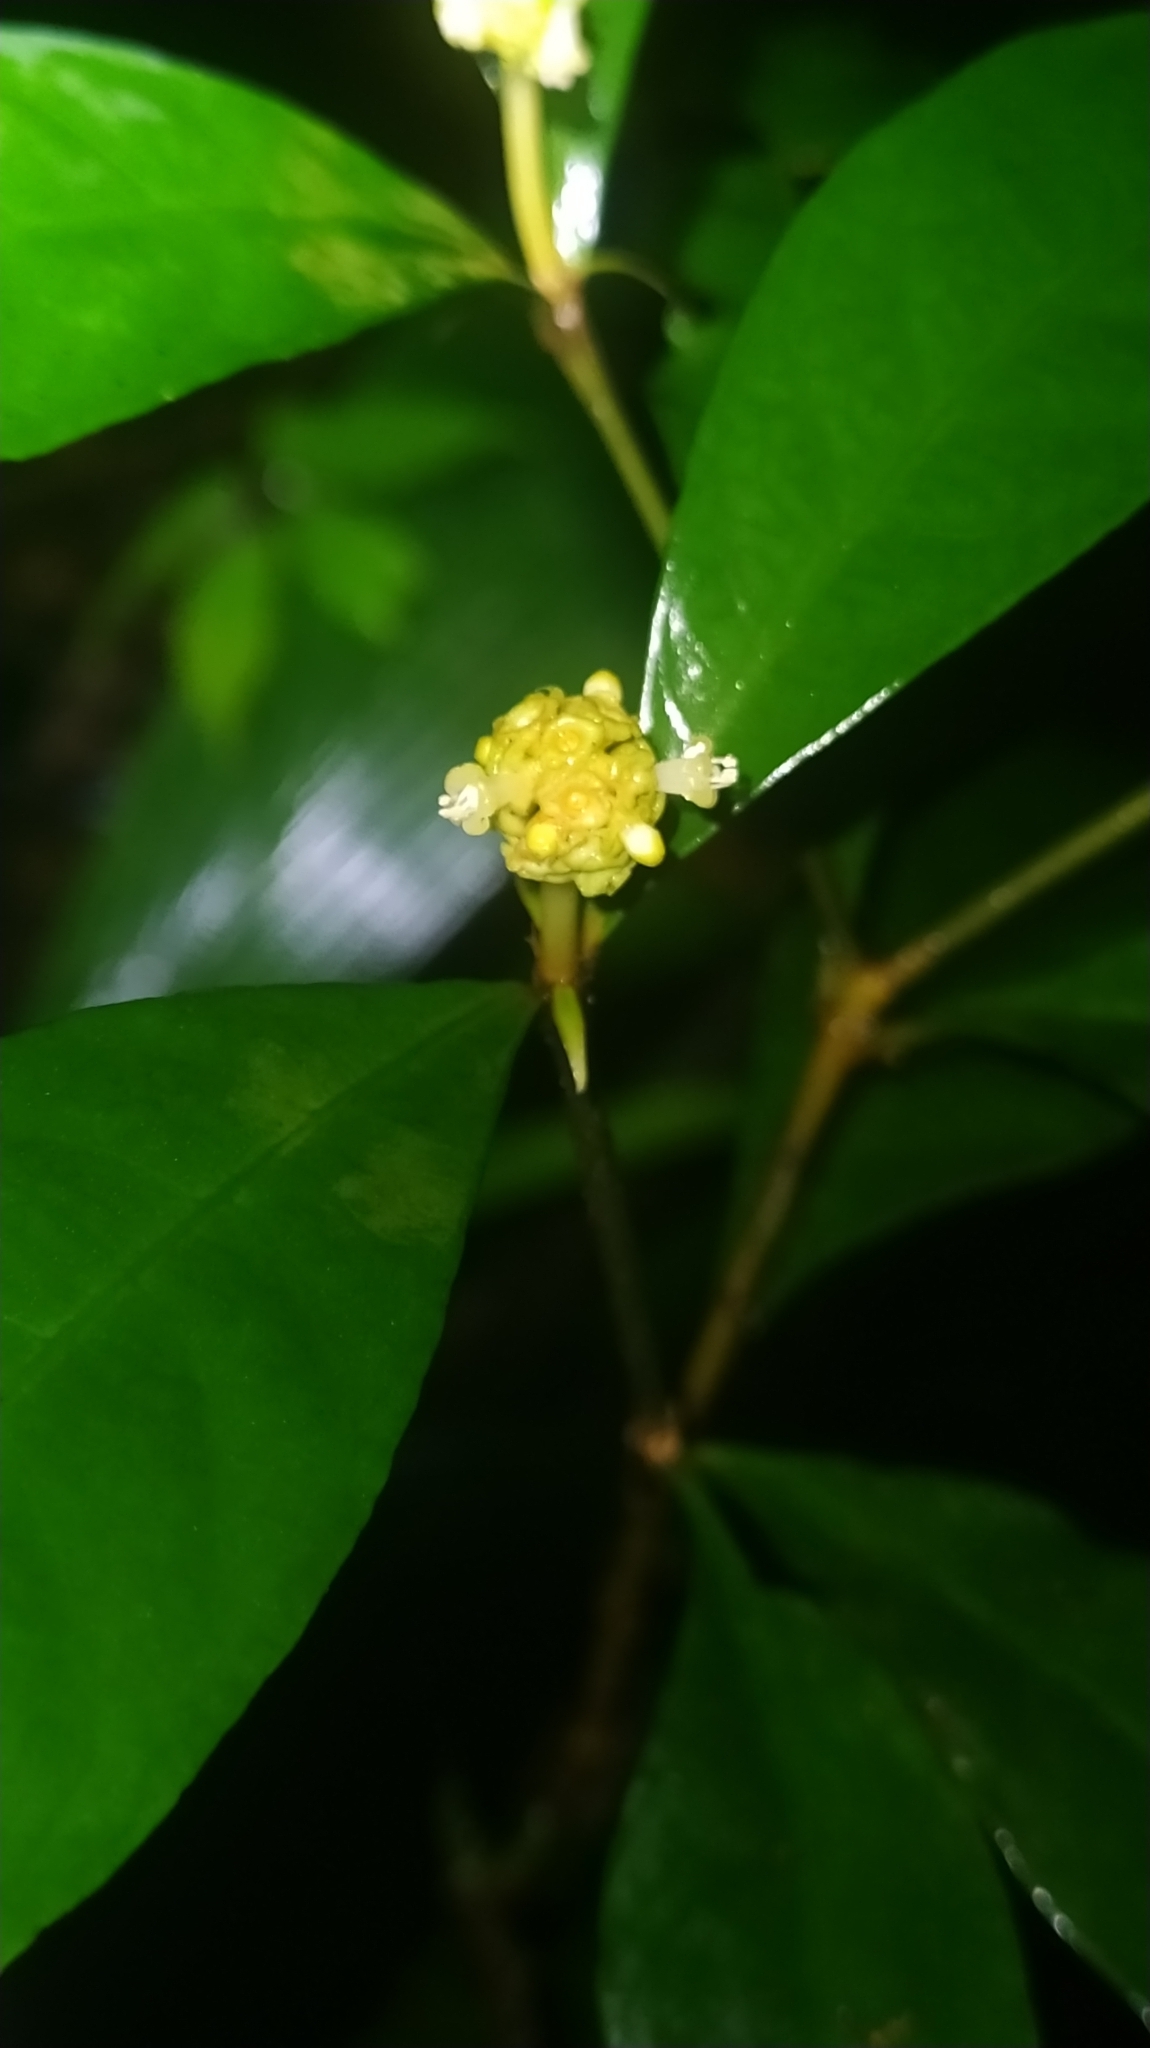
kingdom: Plantae
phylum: Tracheophyta
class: Magnoliopsida
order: Gentianales
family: Rubiaceae
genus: Eumachia
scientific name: Eumachia guianensis
